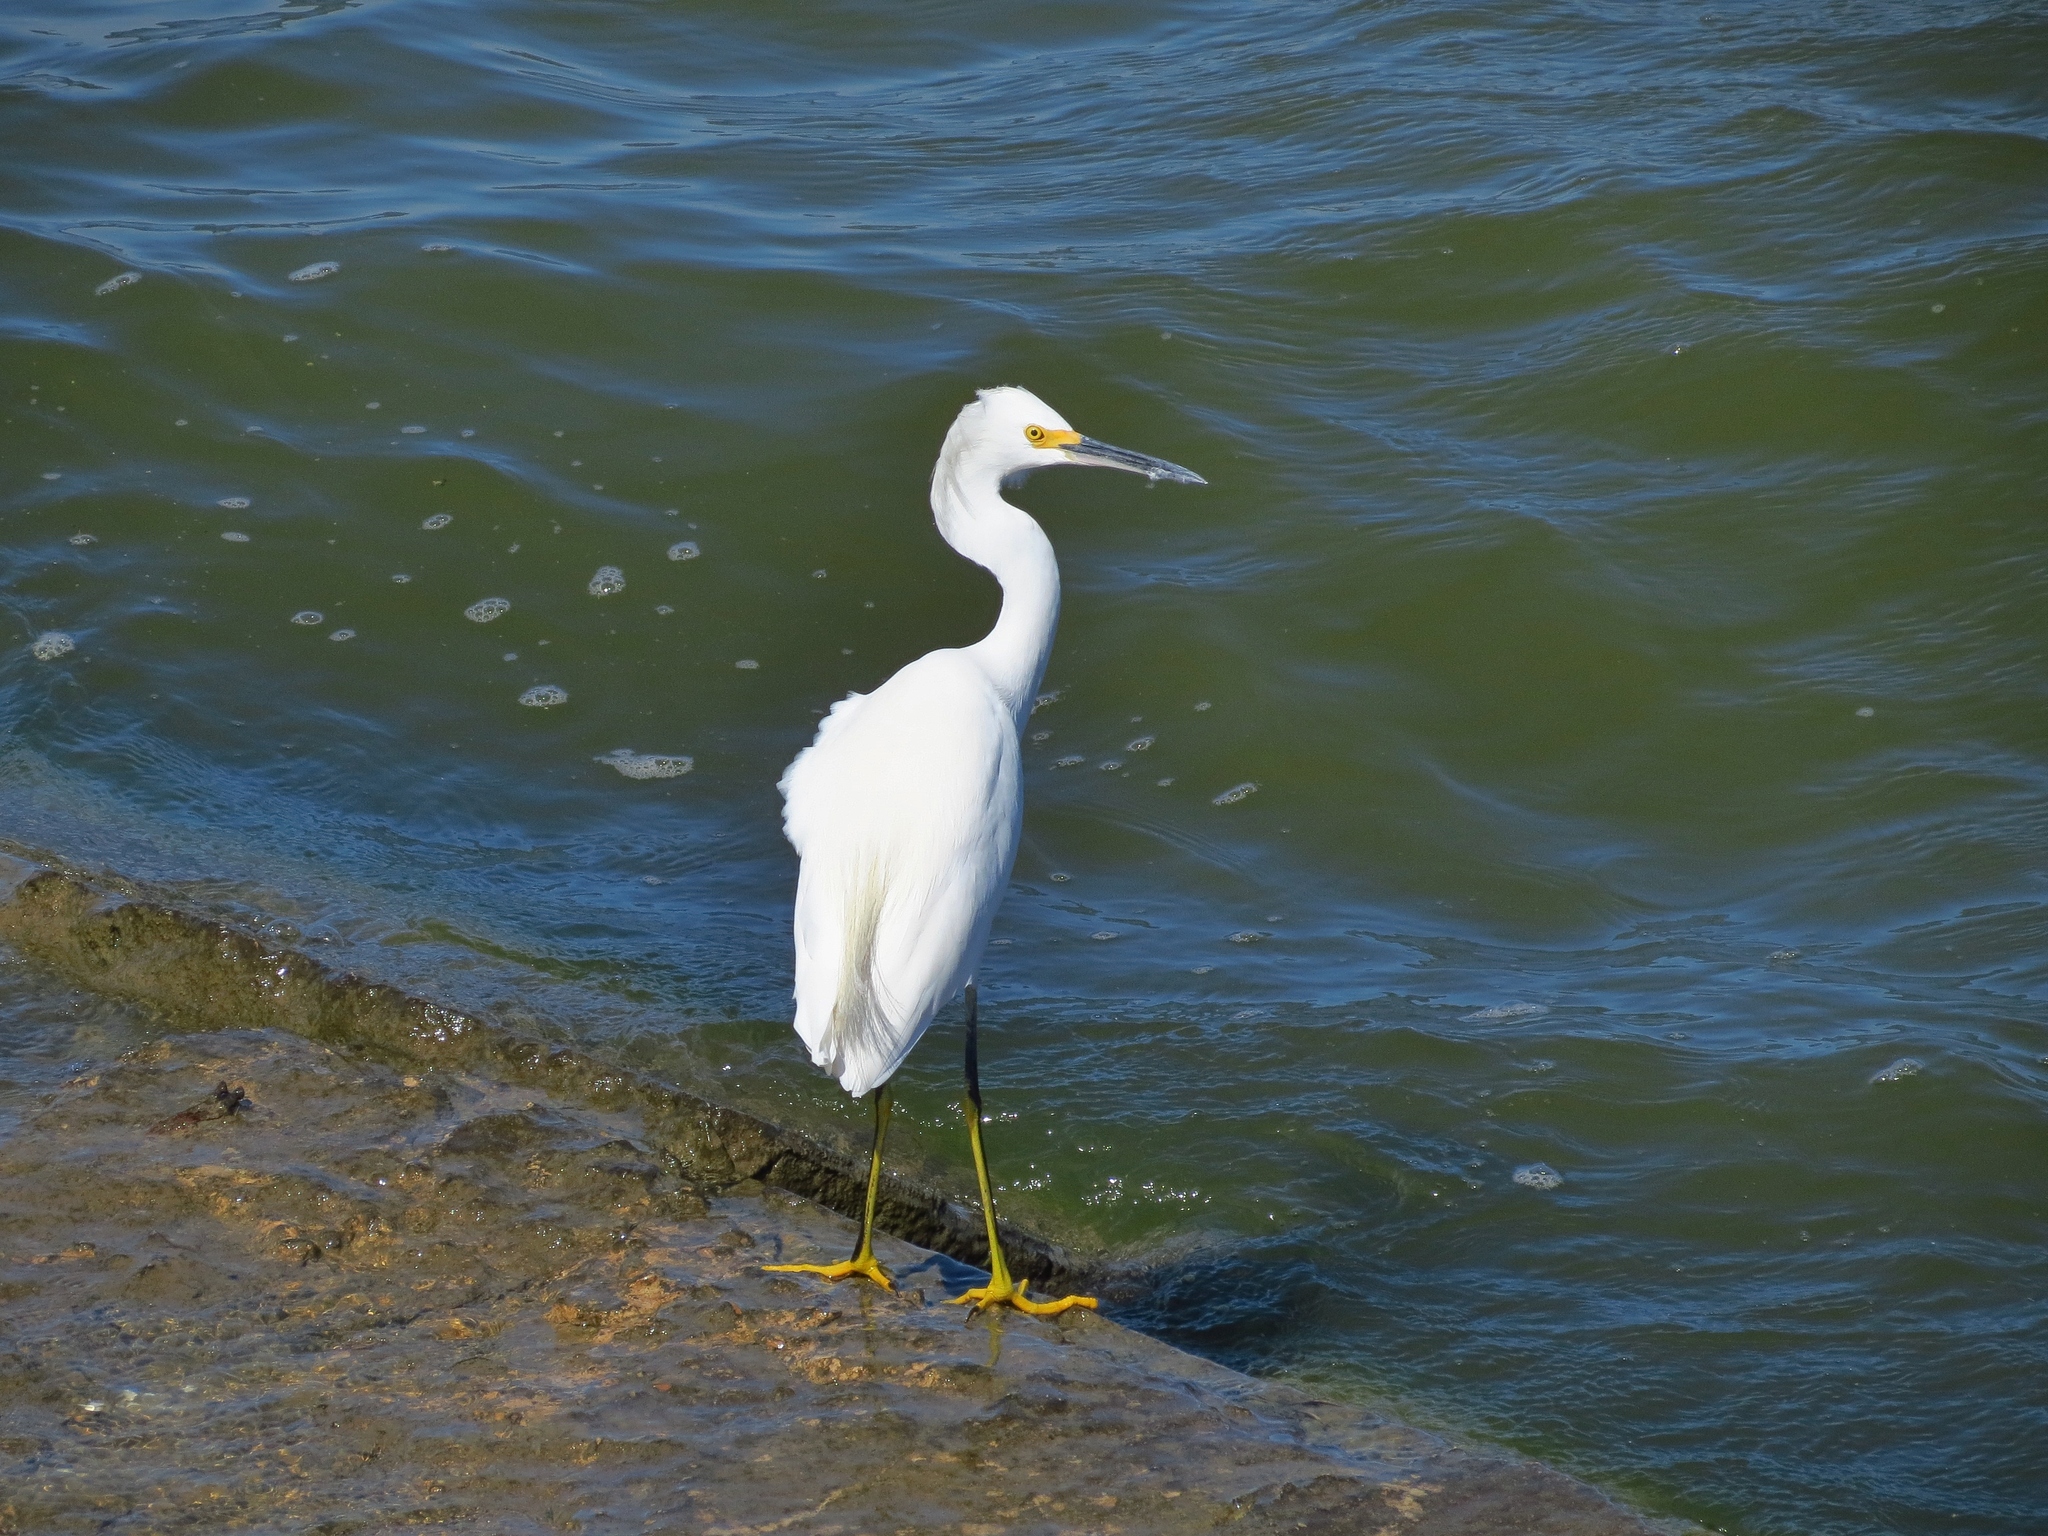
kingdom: Animalia
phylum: Chordata
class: Aves
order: Pelecaniformes
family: Ardeidae
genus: Egretta
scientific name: Egretta thula
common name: Snowy egret
